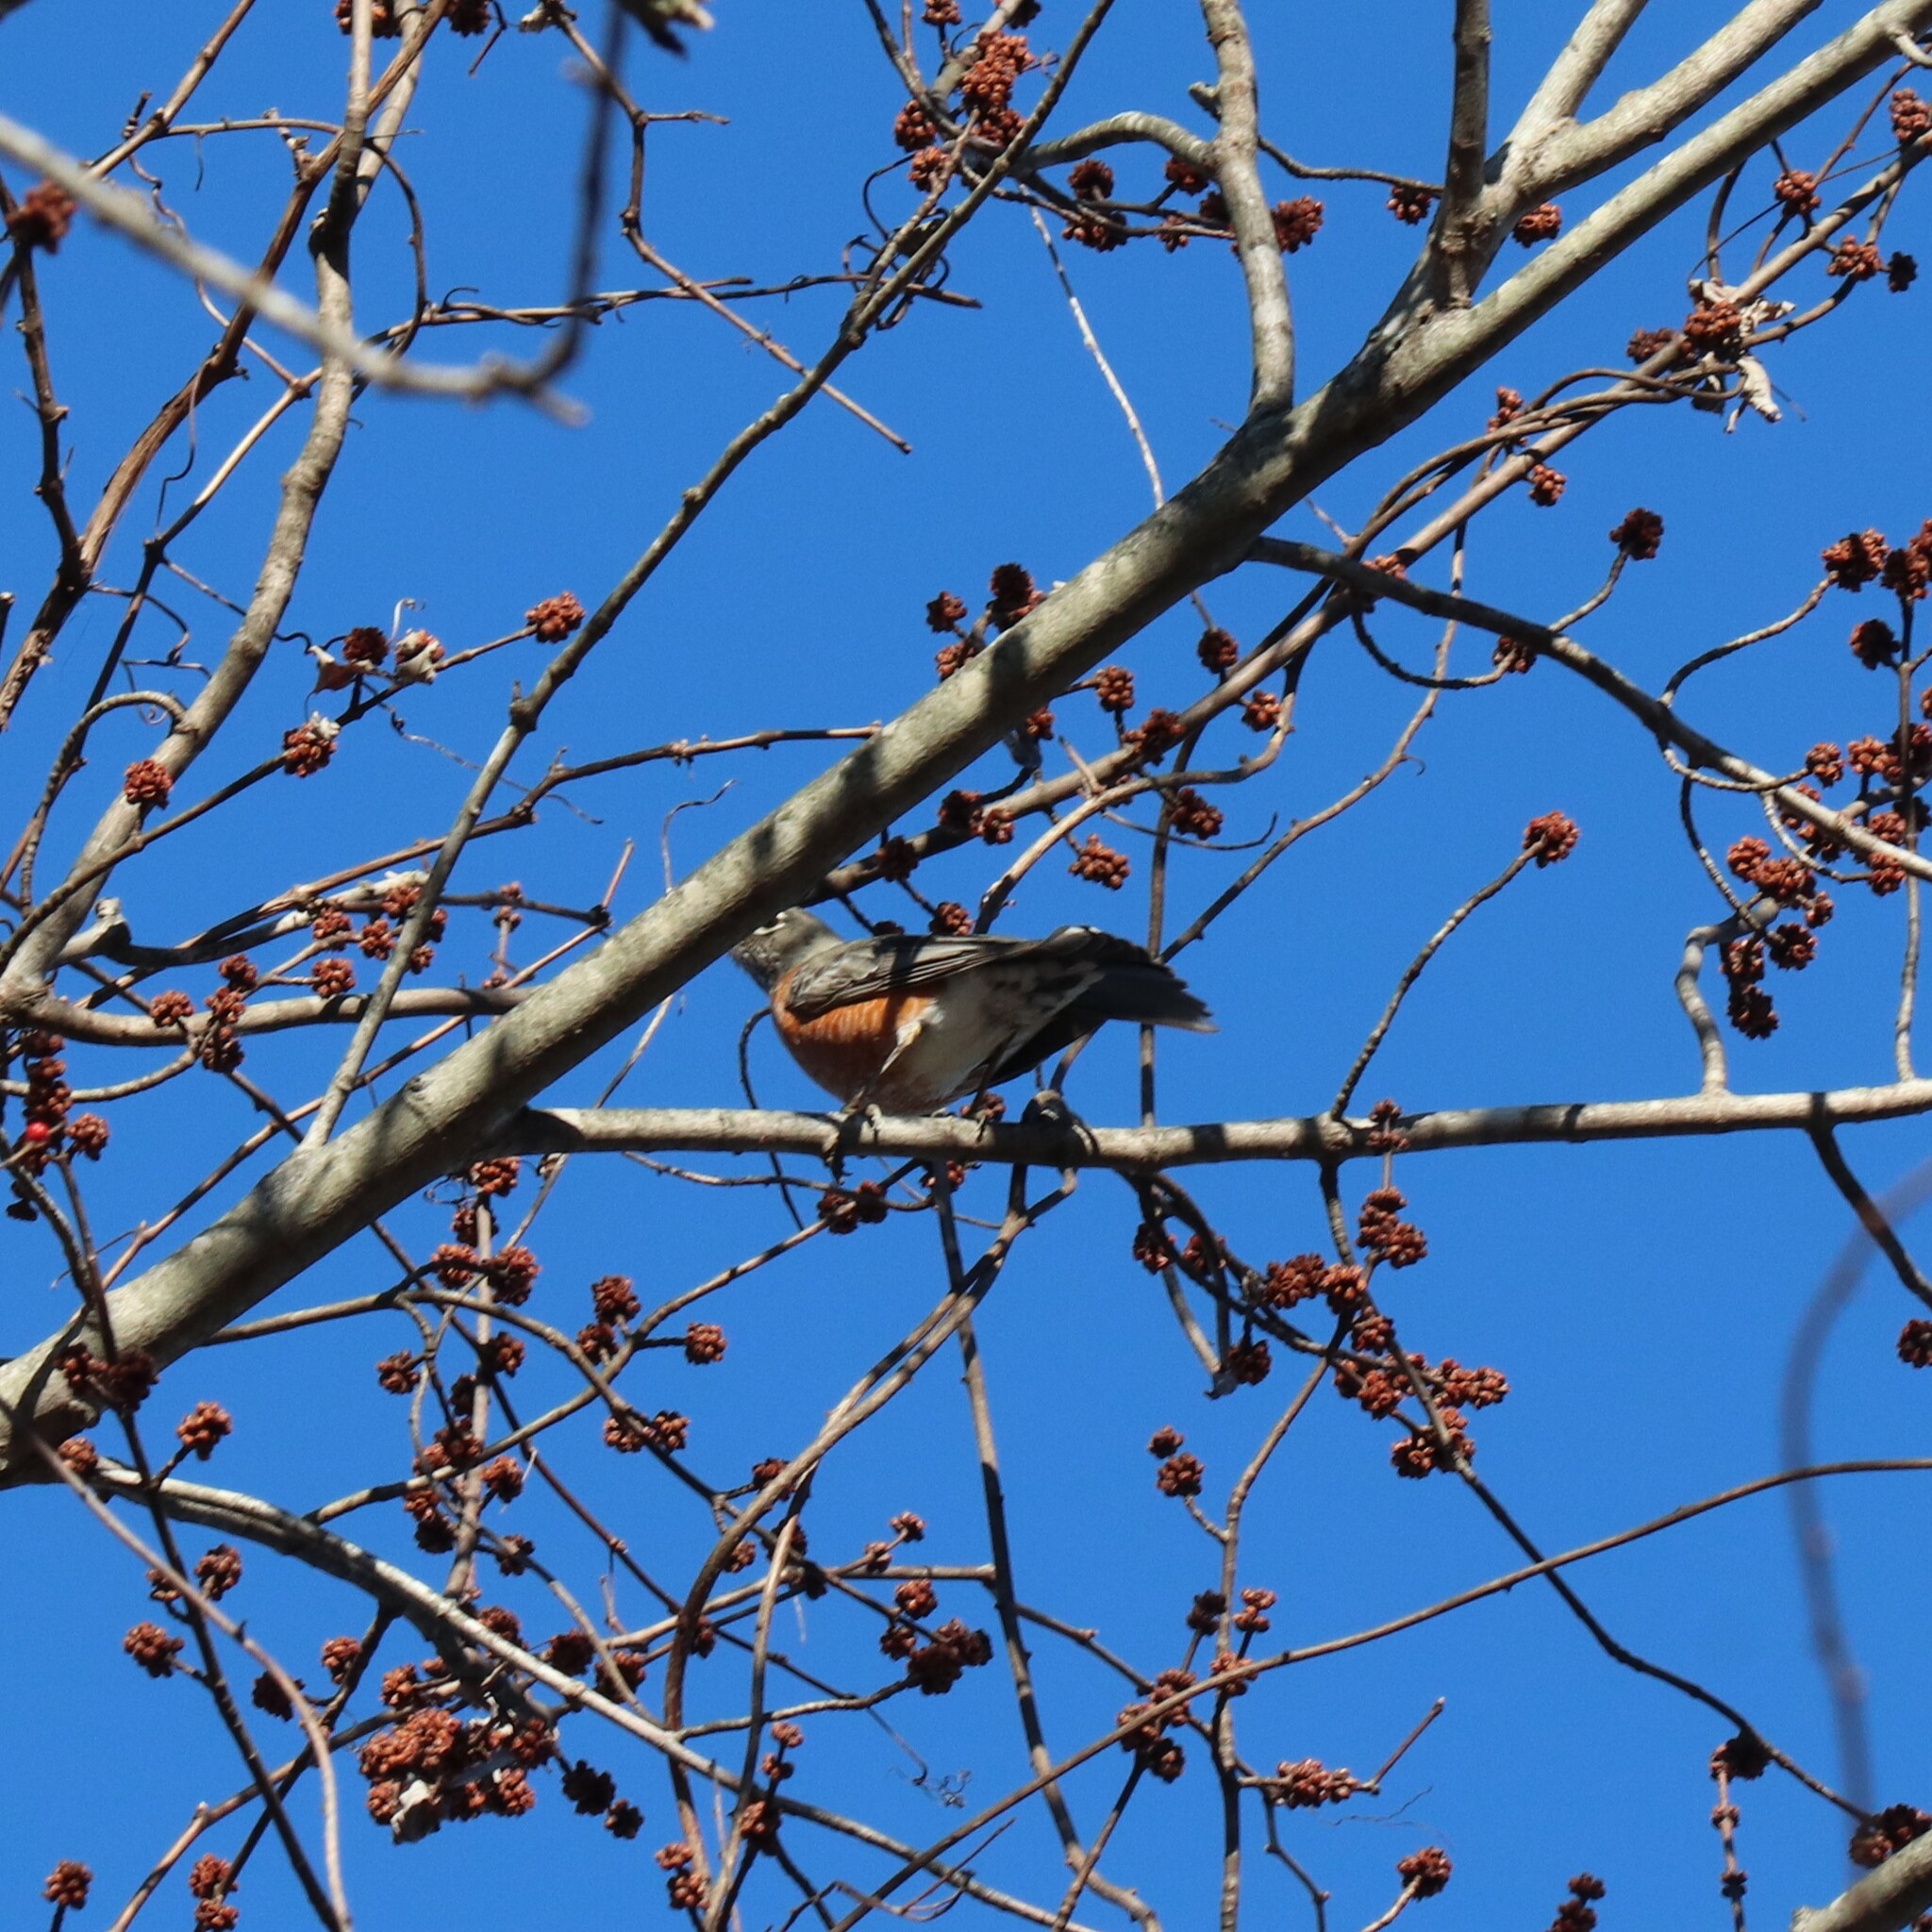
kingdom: Animalia
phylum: Chordata
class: Aves
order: Passeriformes
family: Turdidae
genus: Turdus
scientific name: Turdus migratorius
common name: American robin
